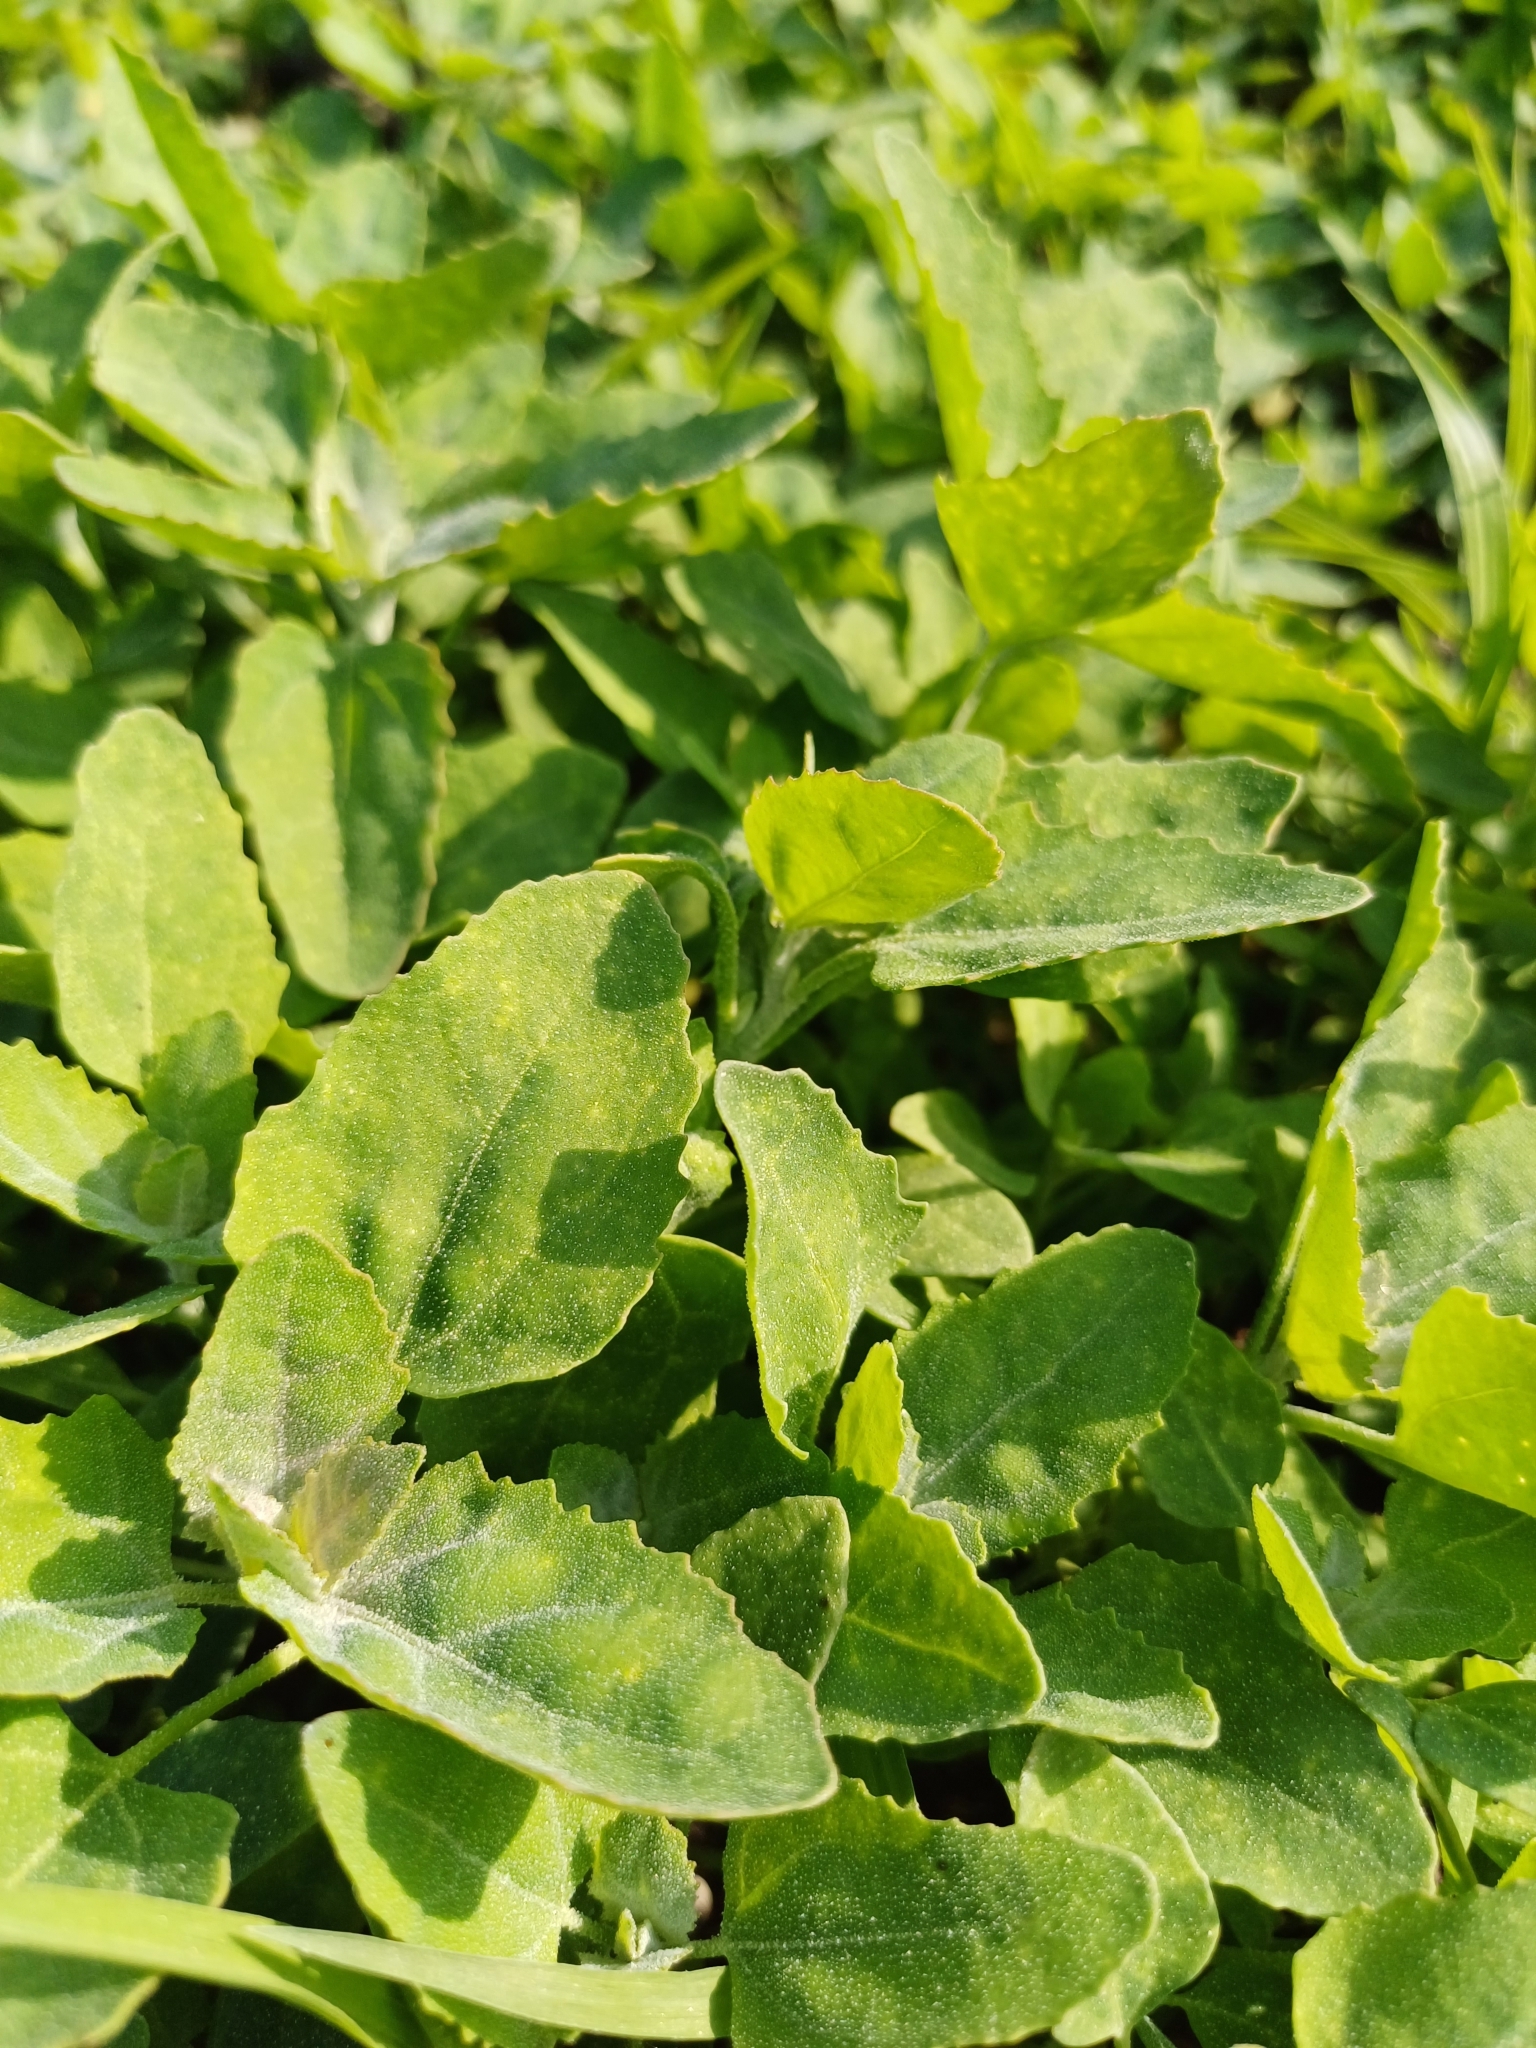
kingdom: Plantae
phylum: Tracheophyta
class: Magnoliopsida
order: Caryophyllales
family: Amaranthaceae
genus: Chenopodium
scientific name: Chenopodium album
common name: Fat-hen
